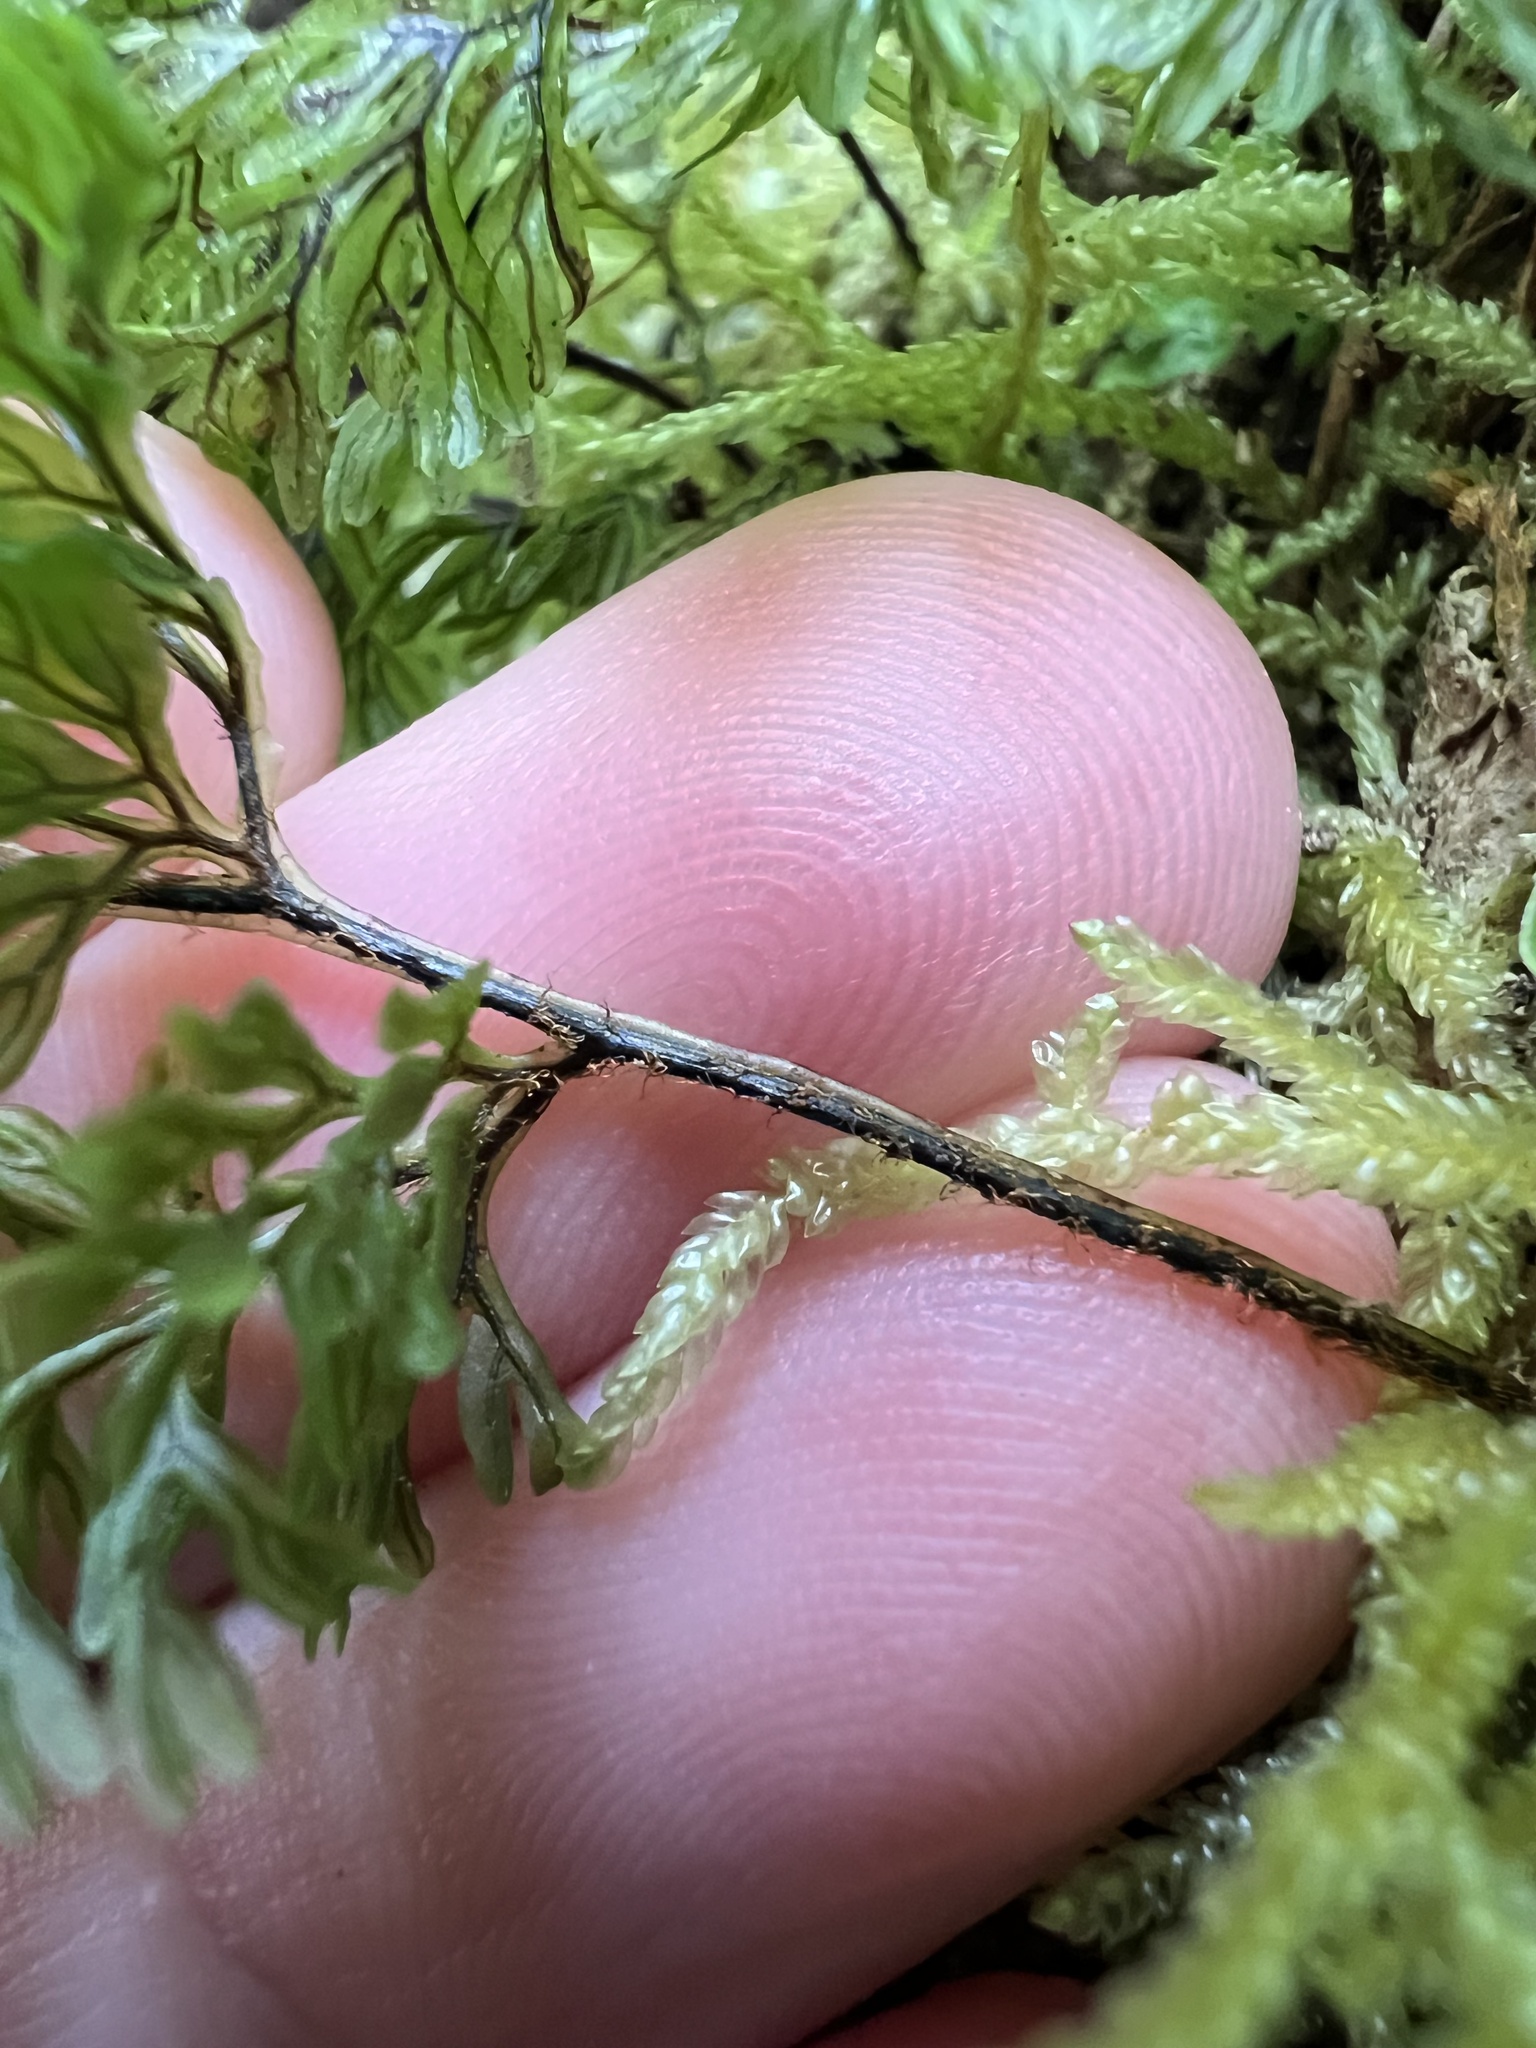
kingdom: Plantae
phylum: Tracheophyta
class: Polypodiopsida
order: Hymenophyllales
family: Hymenophyllaceae
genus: Hymenophyllum
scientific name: Hymenophyllum villosum
